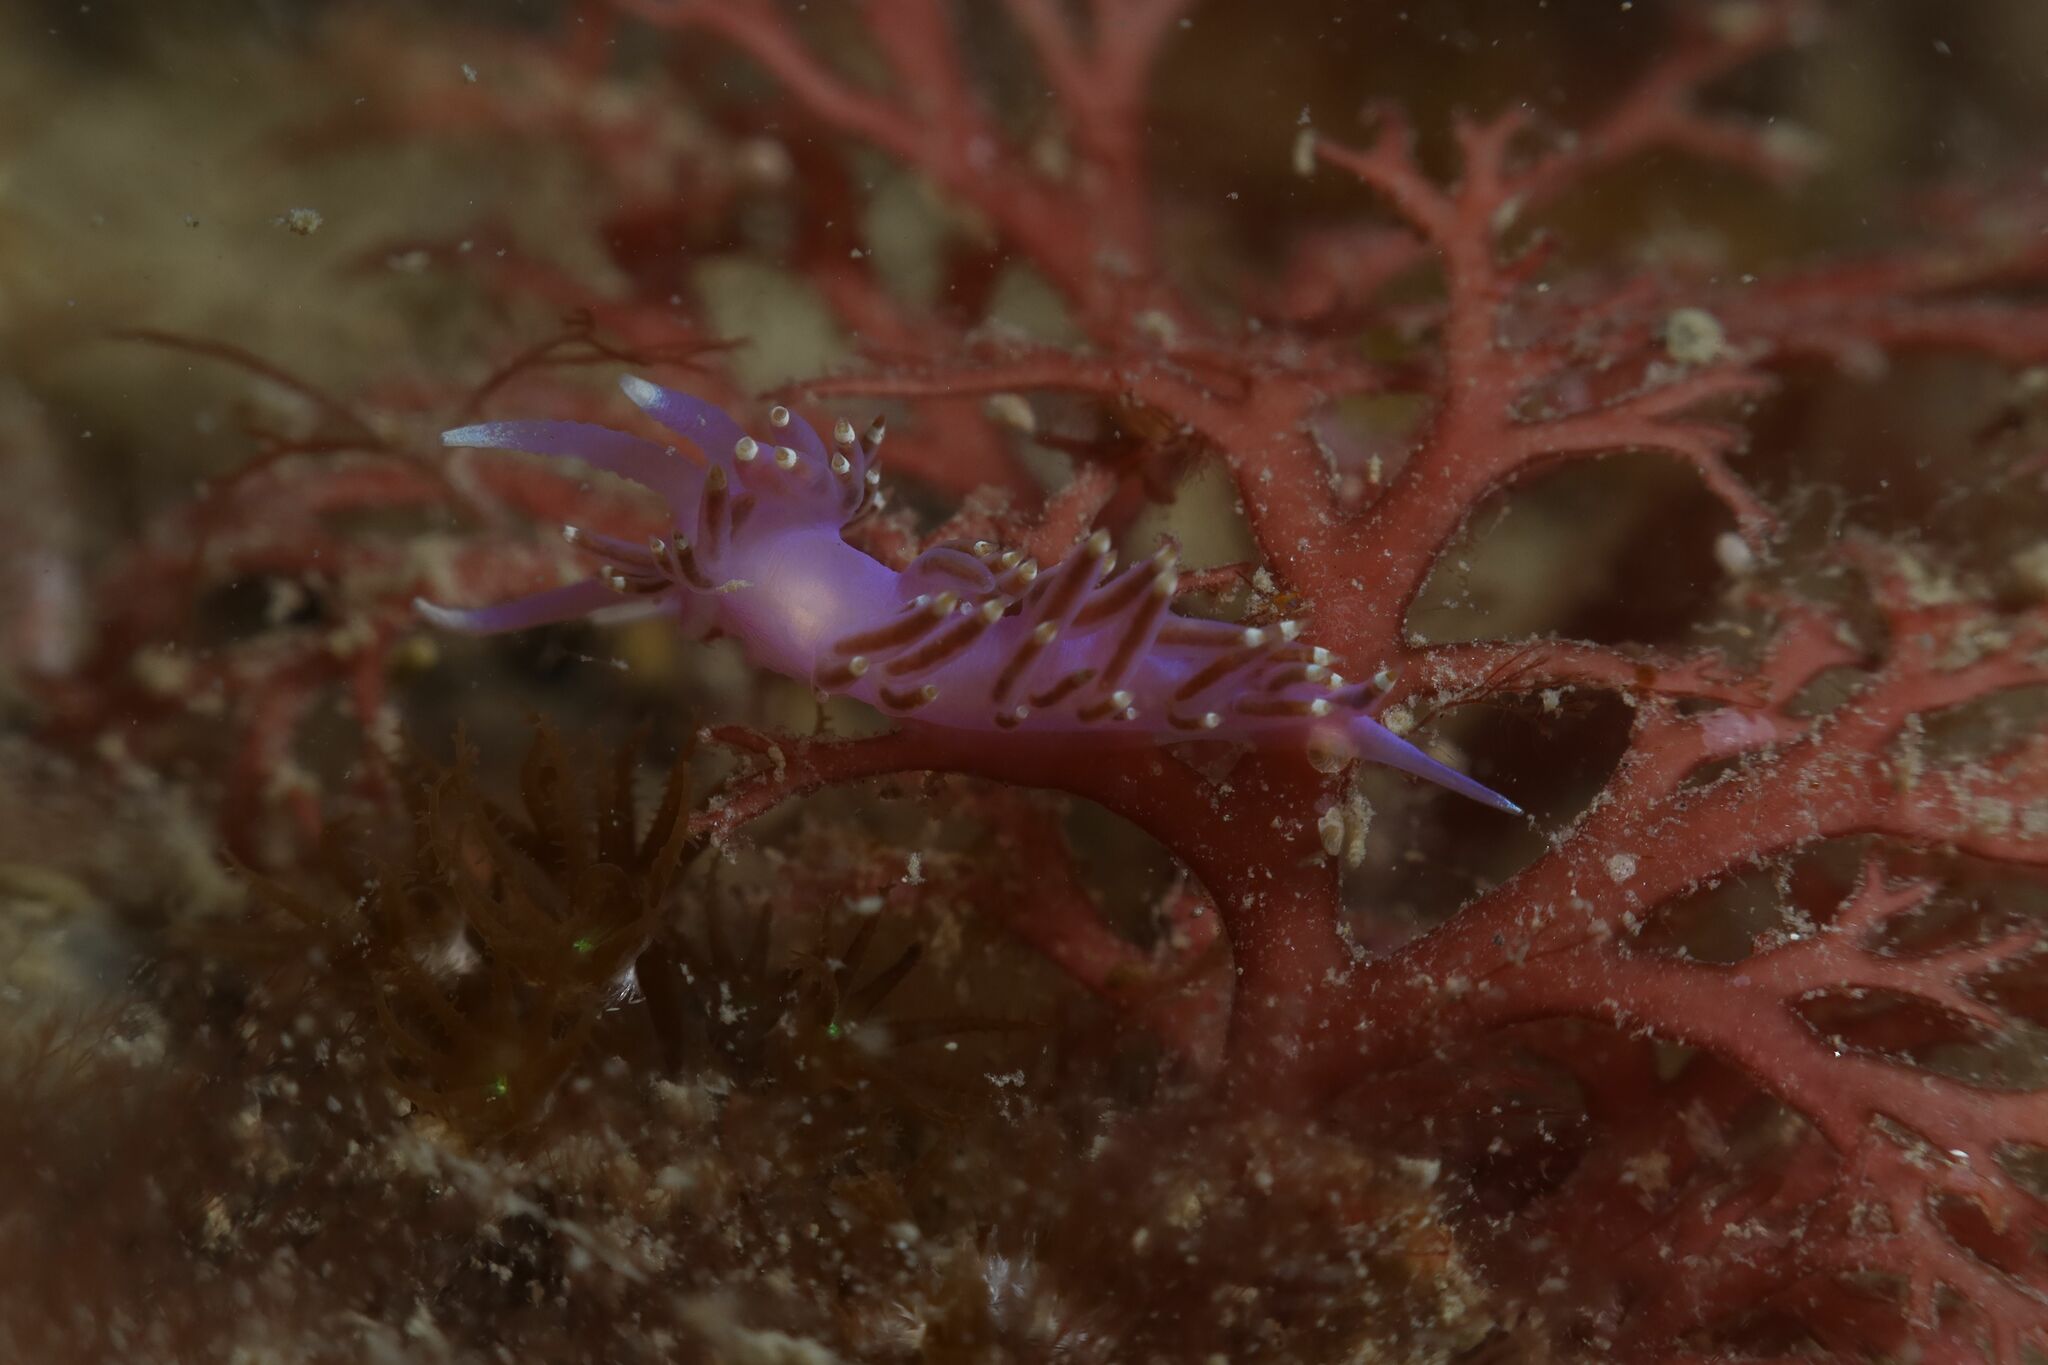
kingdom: Animalia
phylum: Mollusca
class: Gastropoda
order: Nudibranchia
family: Flabellinidae
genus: Edmundsella
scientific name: Edmundsella pedata
